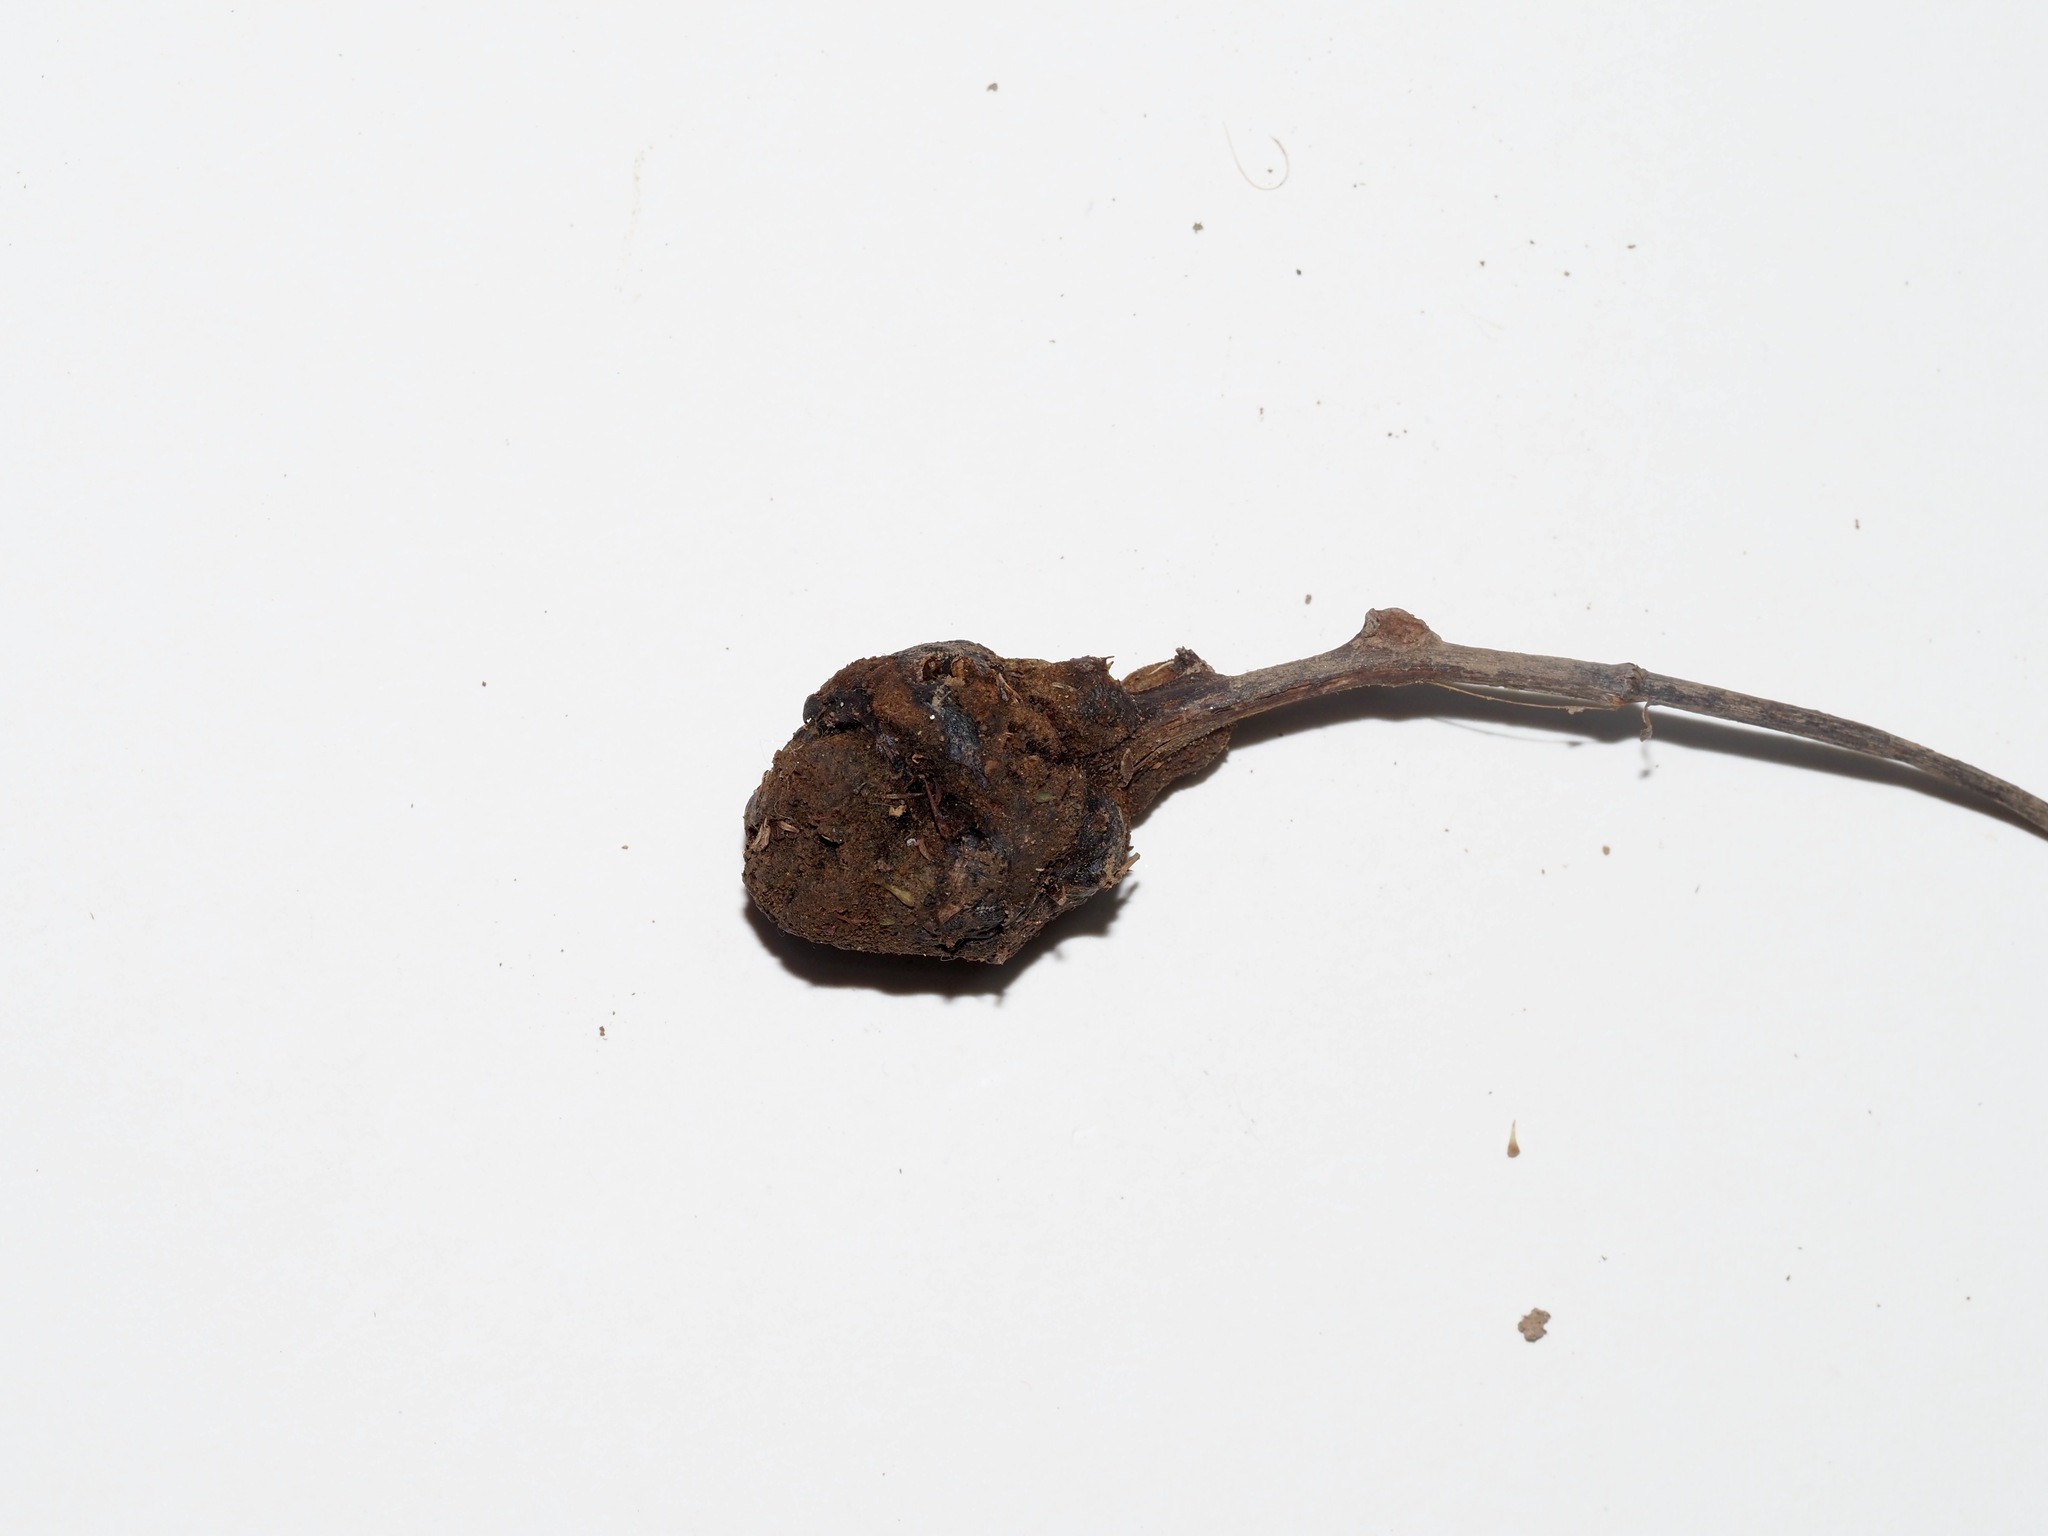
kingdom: Animalia
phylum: Arthropoda
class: Insecta
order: Hymenoptera
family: Cynipidae
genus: Diastrophus
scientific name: Diastrophus
